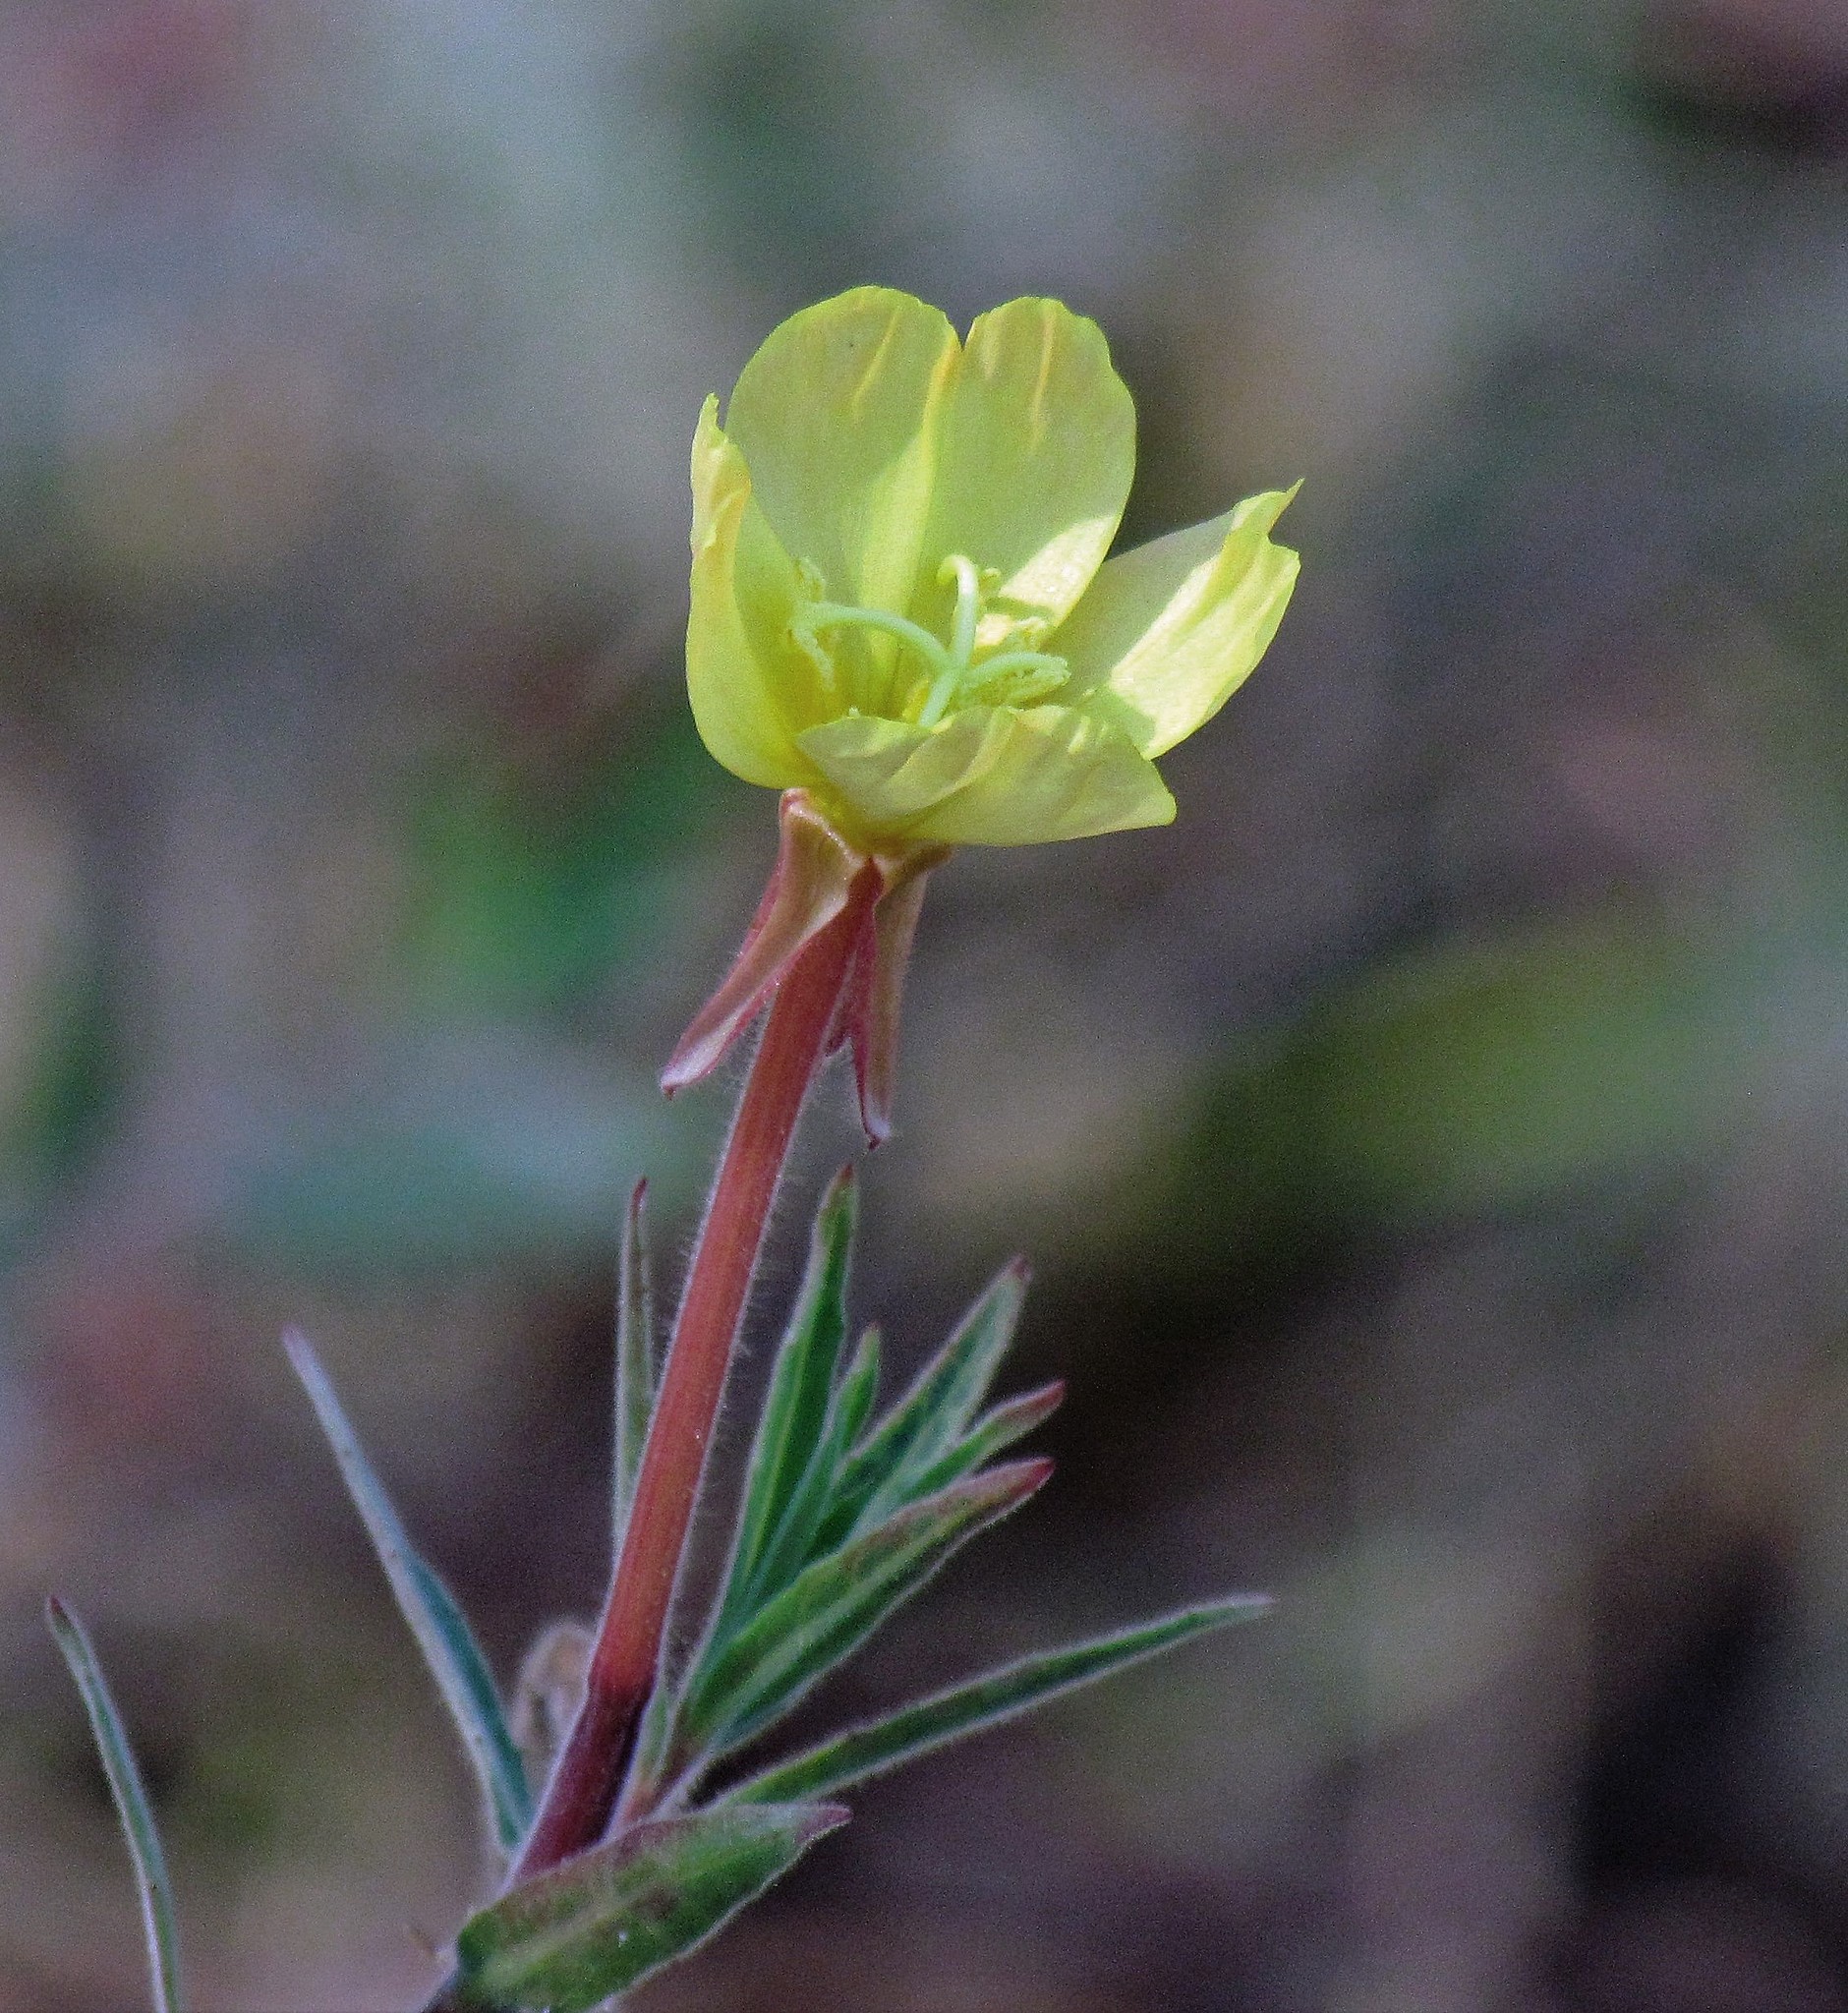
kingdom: Plantae
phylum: Tracheophyta
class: Magnoliopsida
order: Myrtales
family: Onagraceae
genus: Oenothera
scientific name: Oenothera affinis
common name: Longflower evening primrose
